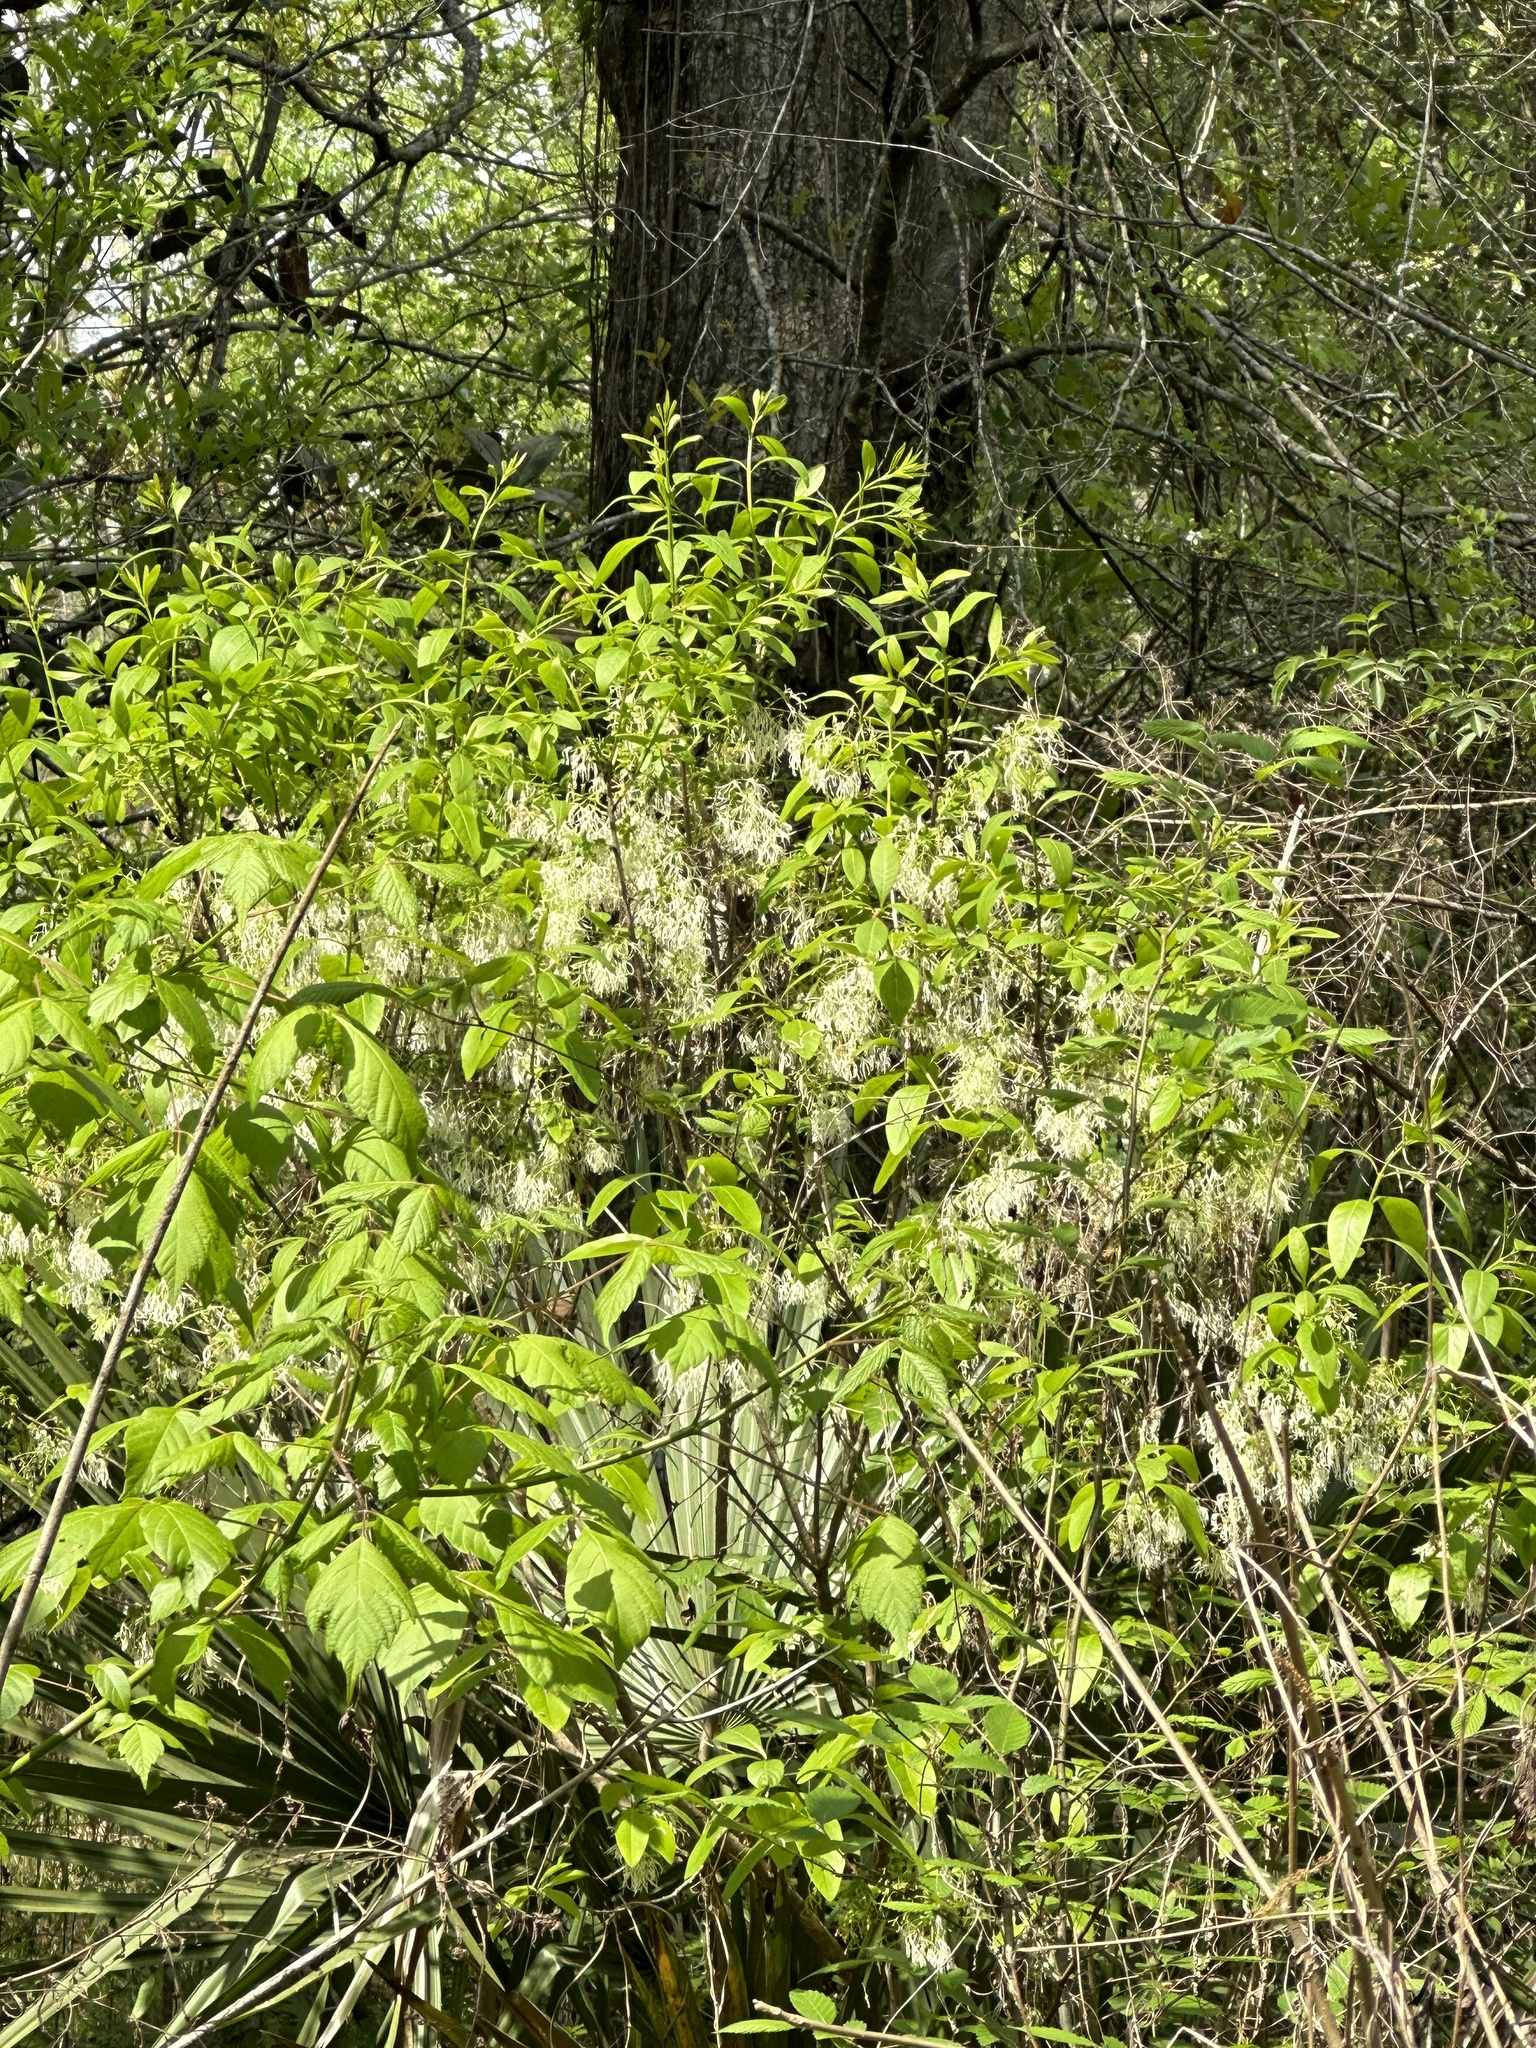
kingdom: Plantae
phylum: Tracheophyta
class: Magnoliopsida
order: Lamiales
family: Oleaceae
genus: Chionanthus
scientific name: Chionanthus virginicus
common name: American fringetree
